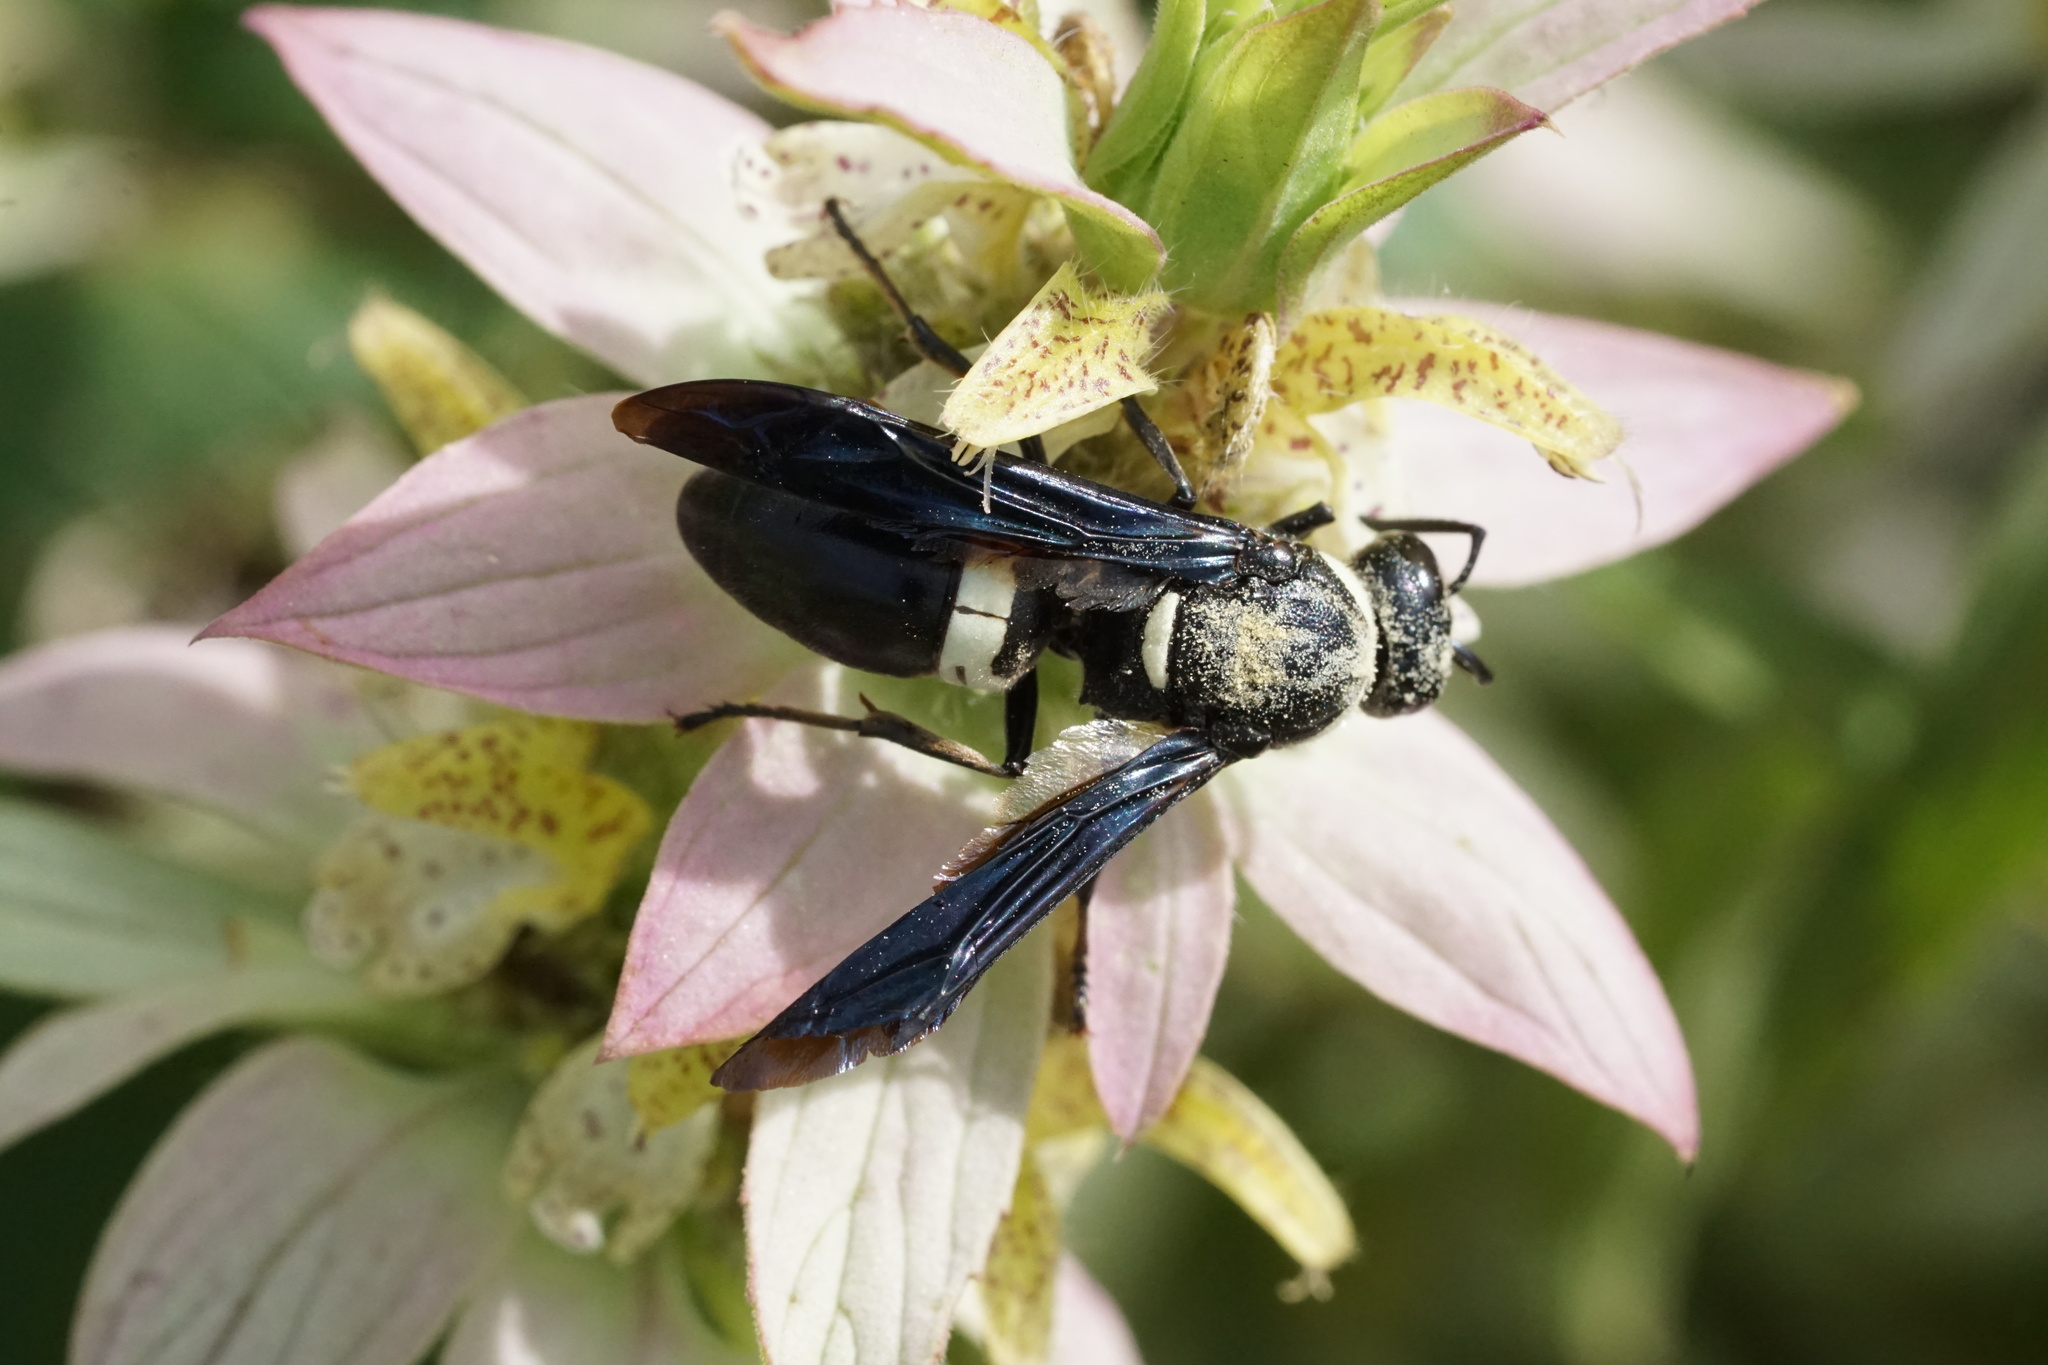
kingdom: Animalia
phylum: Arthropoda
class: Insecta
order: Hymenoptera
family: Eumenidae
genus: Monobia
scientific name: Monobia quadridens
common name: Four-toothed mason wasp
